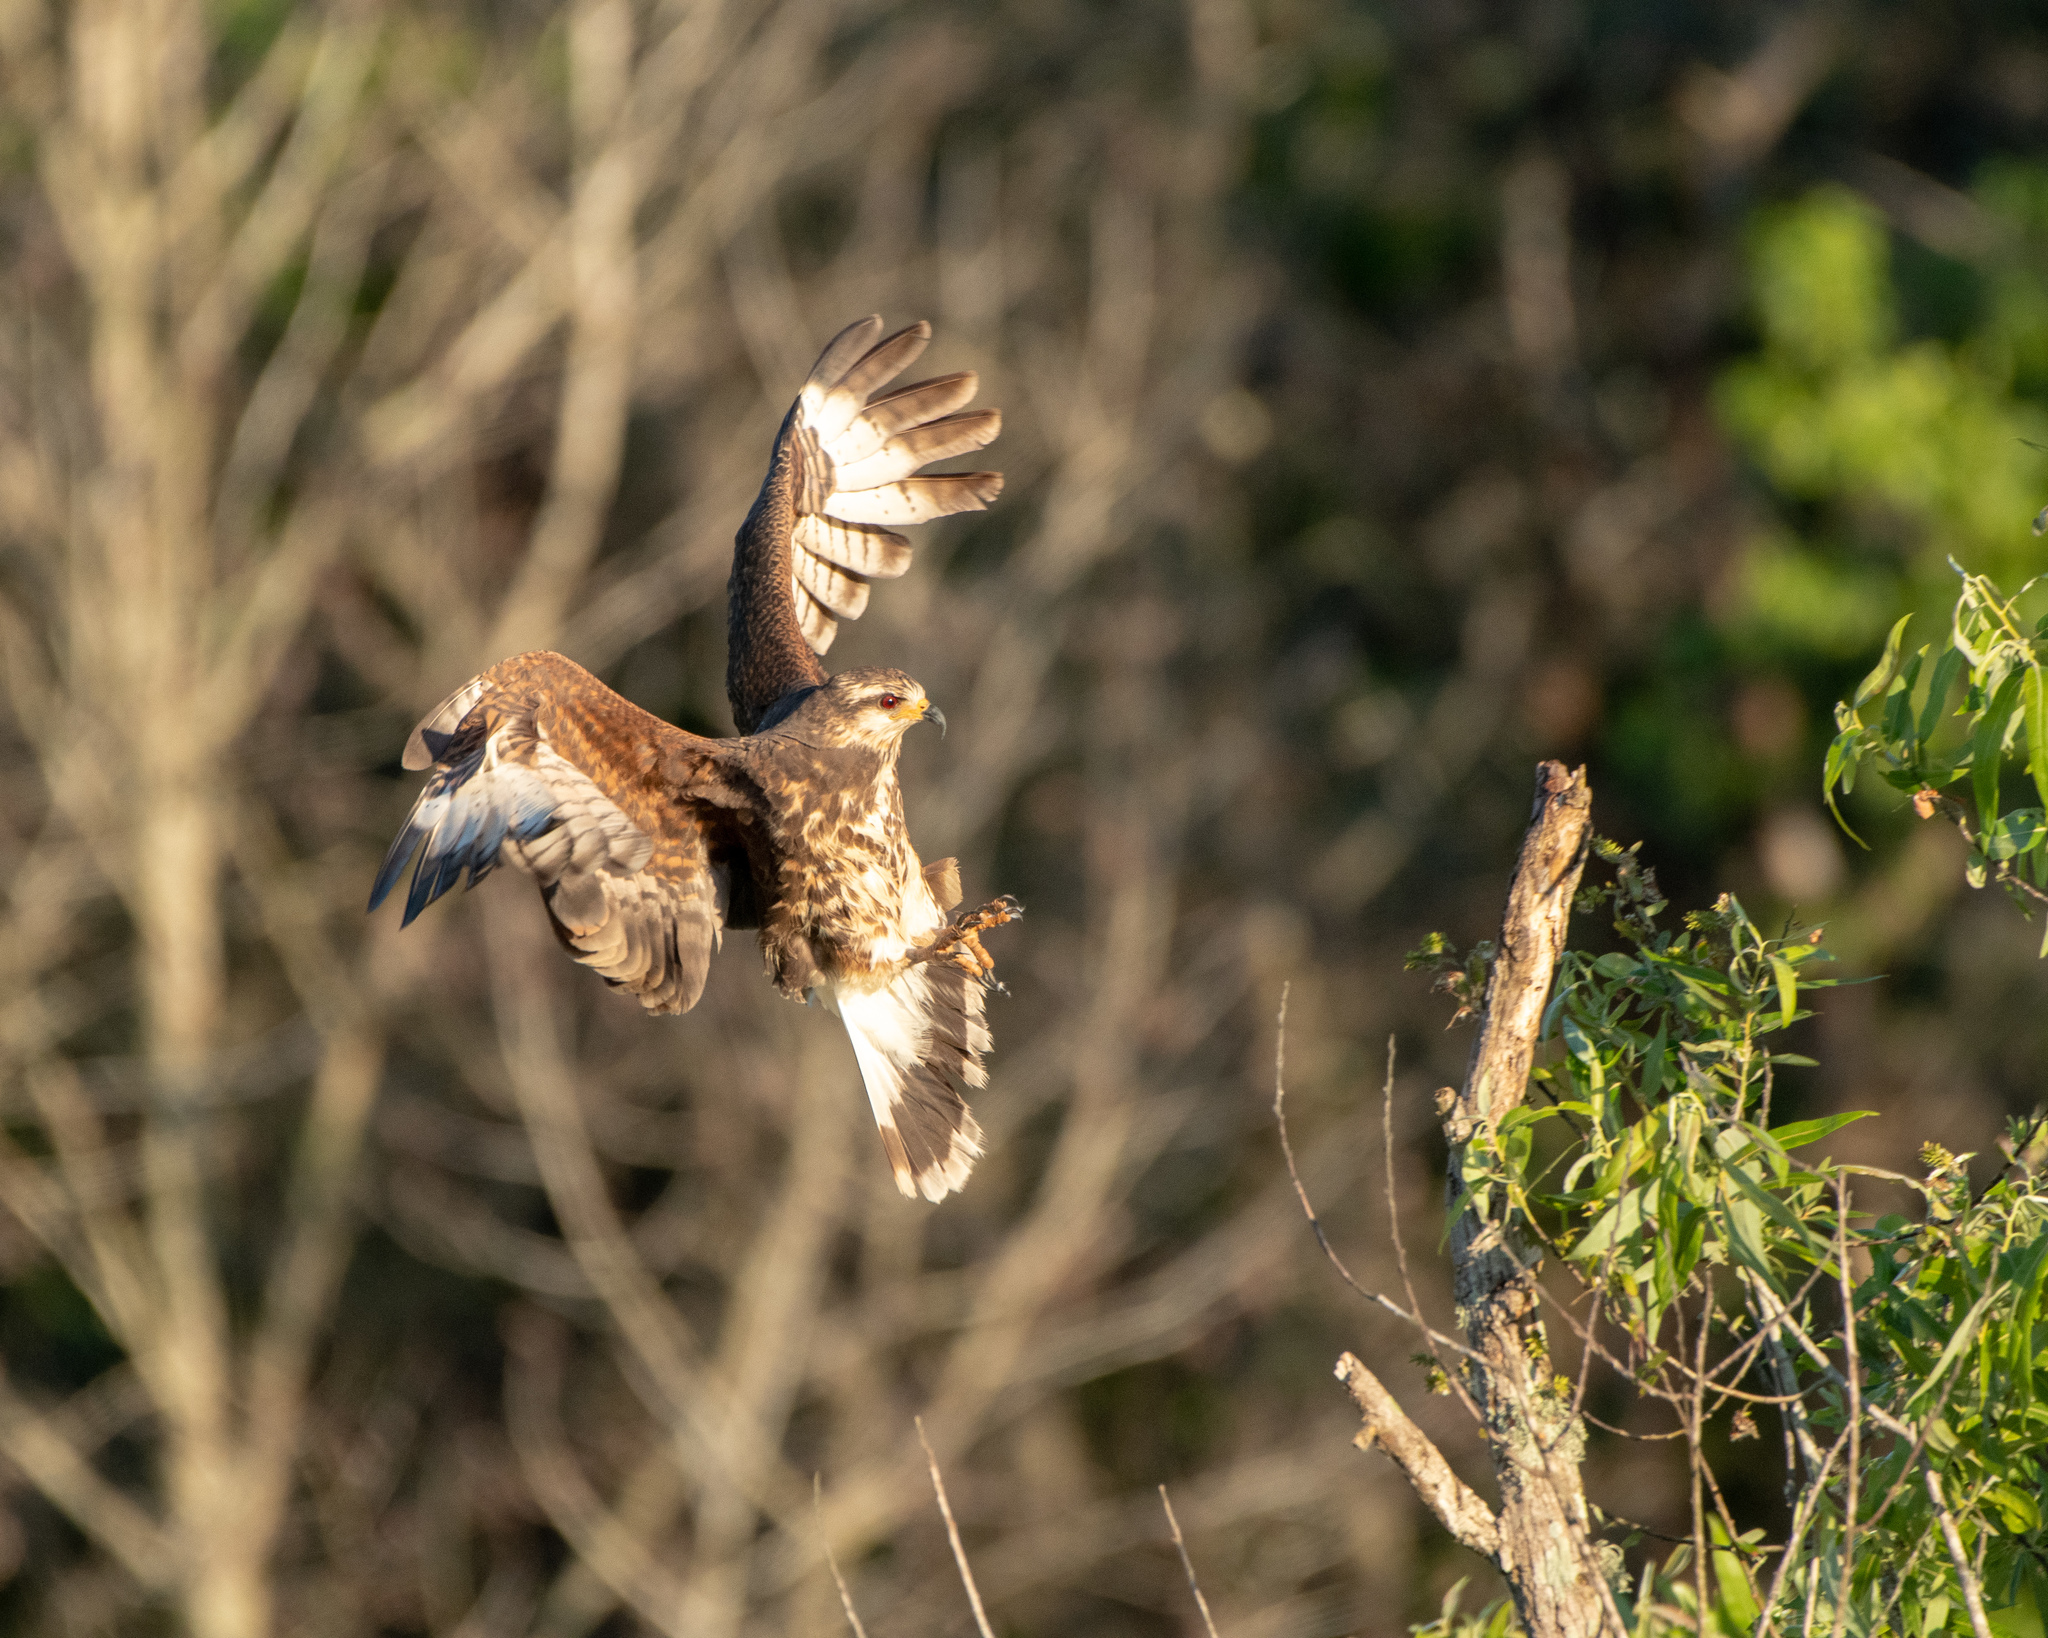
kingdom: Animalia
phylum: Chordata
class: Aves
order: Accipitriformes
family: Accipitridae
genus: Rostrhamus
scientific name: Rostrhamus sociabilis
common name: Snail kite
